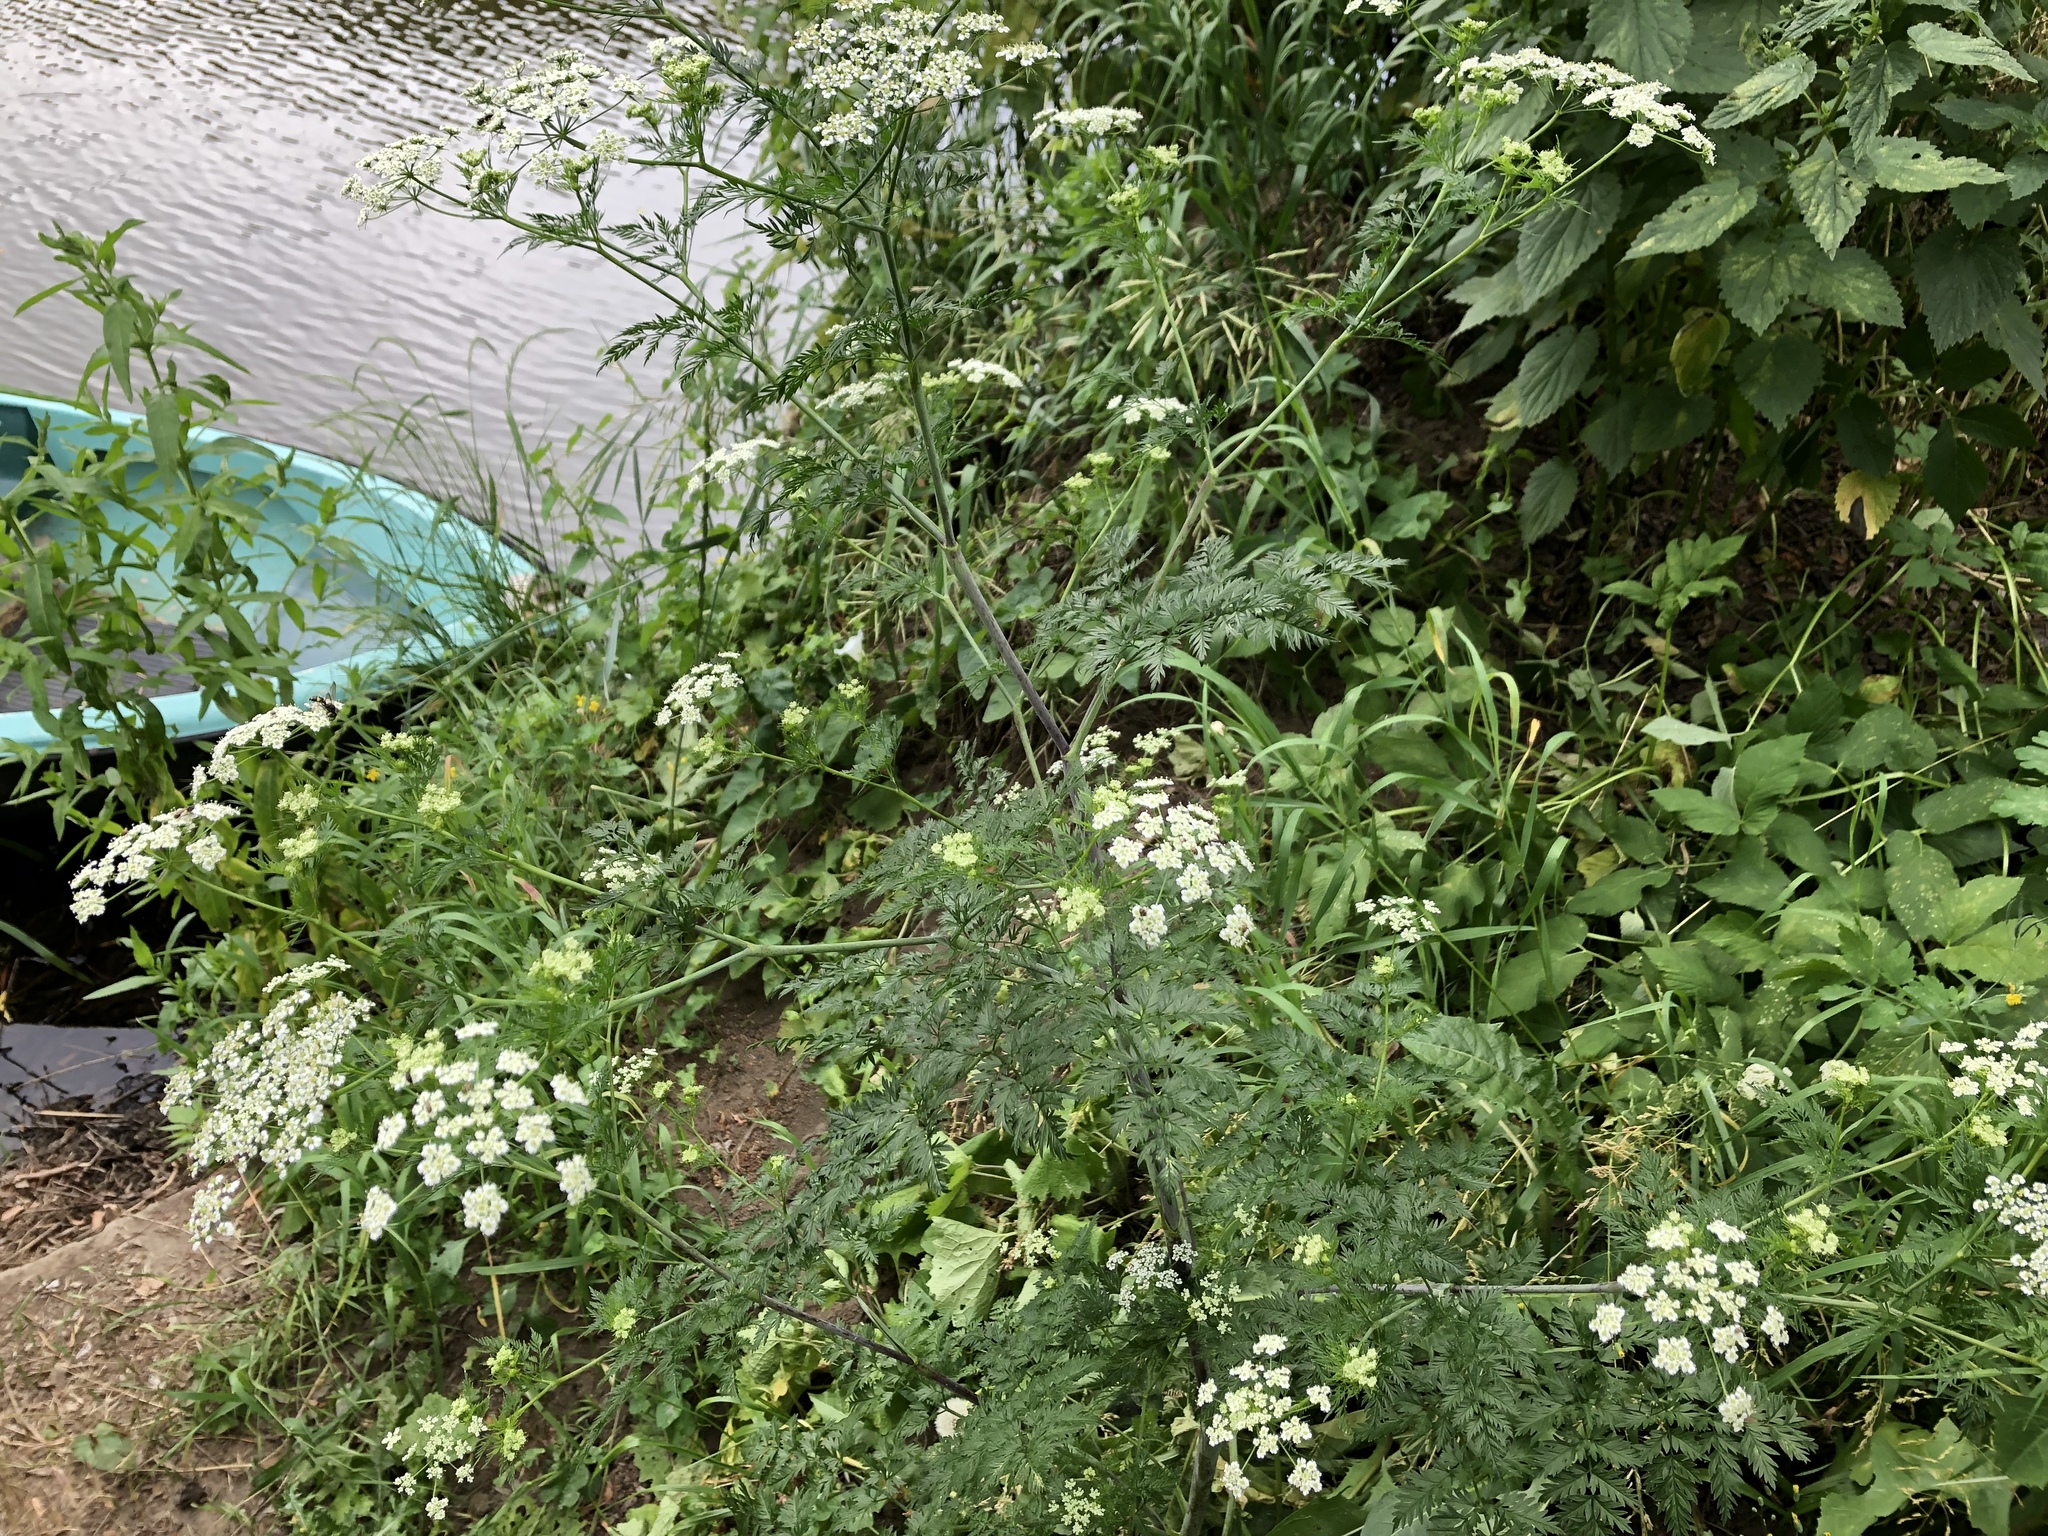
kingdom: Plantae
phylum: Tracheophyta
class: Magnoliopsida
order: Apiales
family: Apiaceae
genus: Chaerophyllum
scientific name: Chaerophyllum bulbosum
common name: Bulbous chervil
